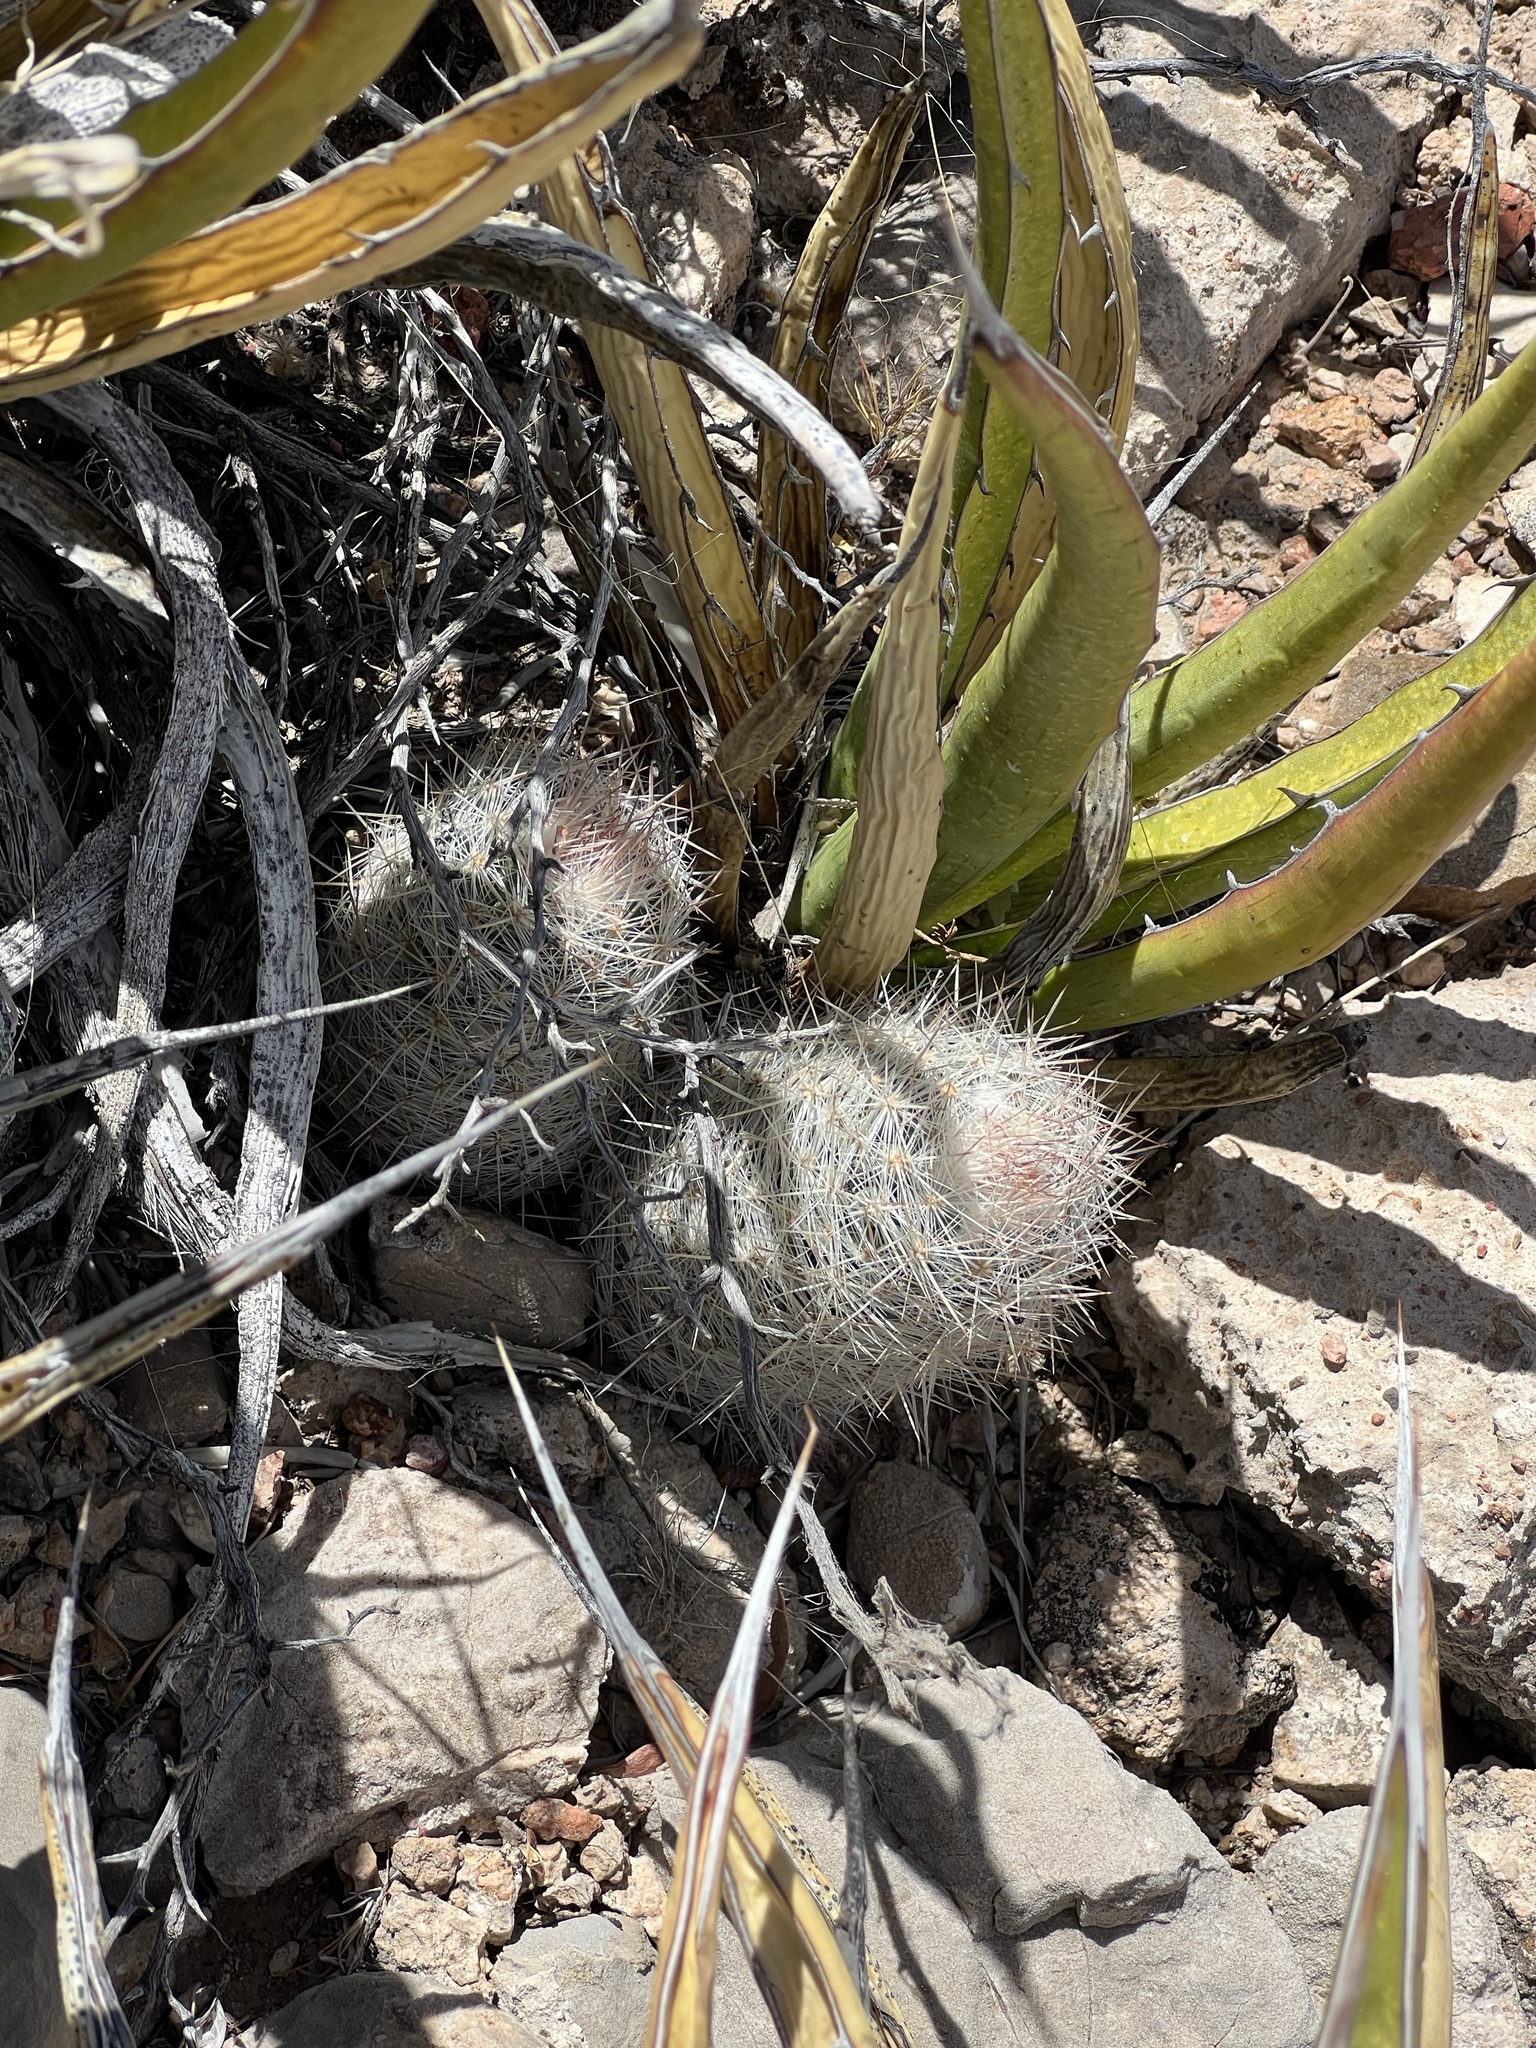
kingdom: Plantae
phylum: Tracheophyta
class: Magnoliopsida
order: Caryophyllales
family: Cactaceae
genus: Pelecyphora
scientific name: Pelecyphora tuberculosa
